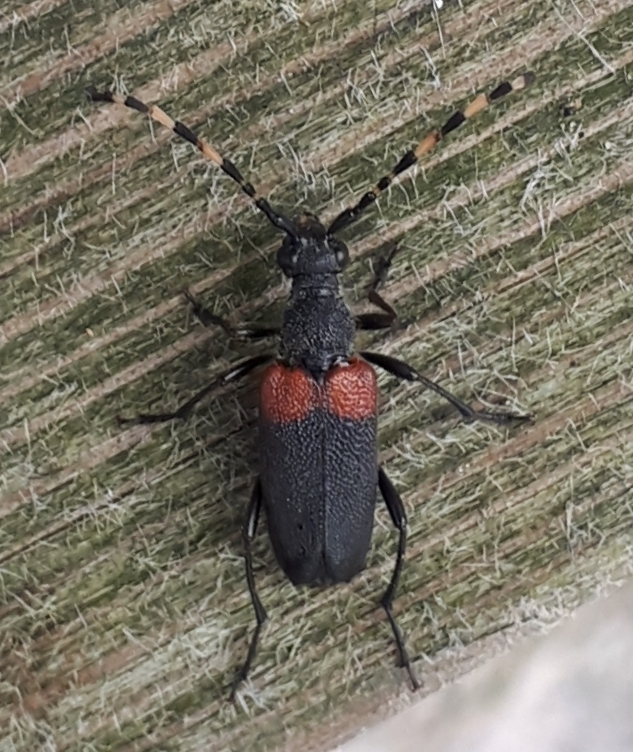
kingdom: Animalia
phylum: Arthropoda
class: Insecta
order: Coleoptera
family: Cerambycidae
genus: Stictoleptura
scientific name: Stictoleptura canadensis
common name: Red-shouldered pine borer
